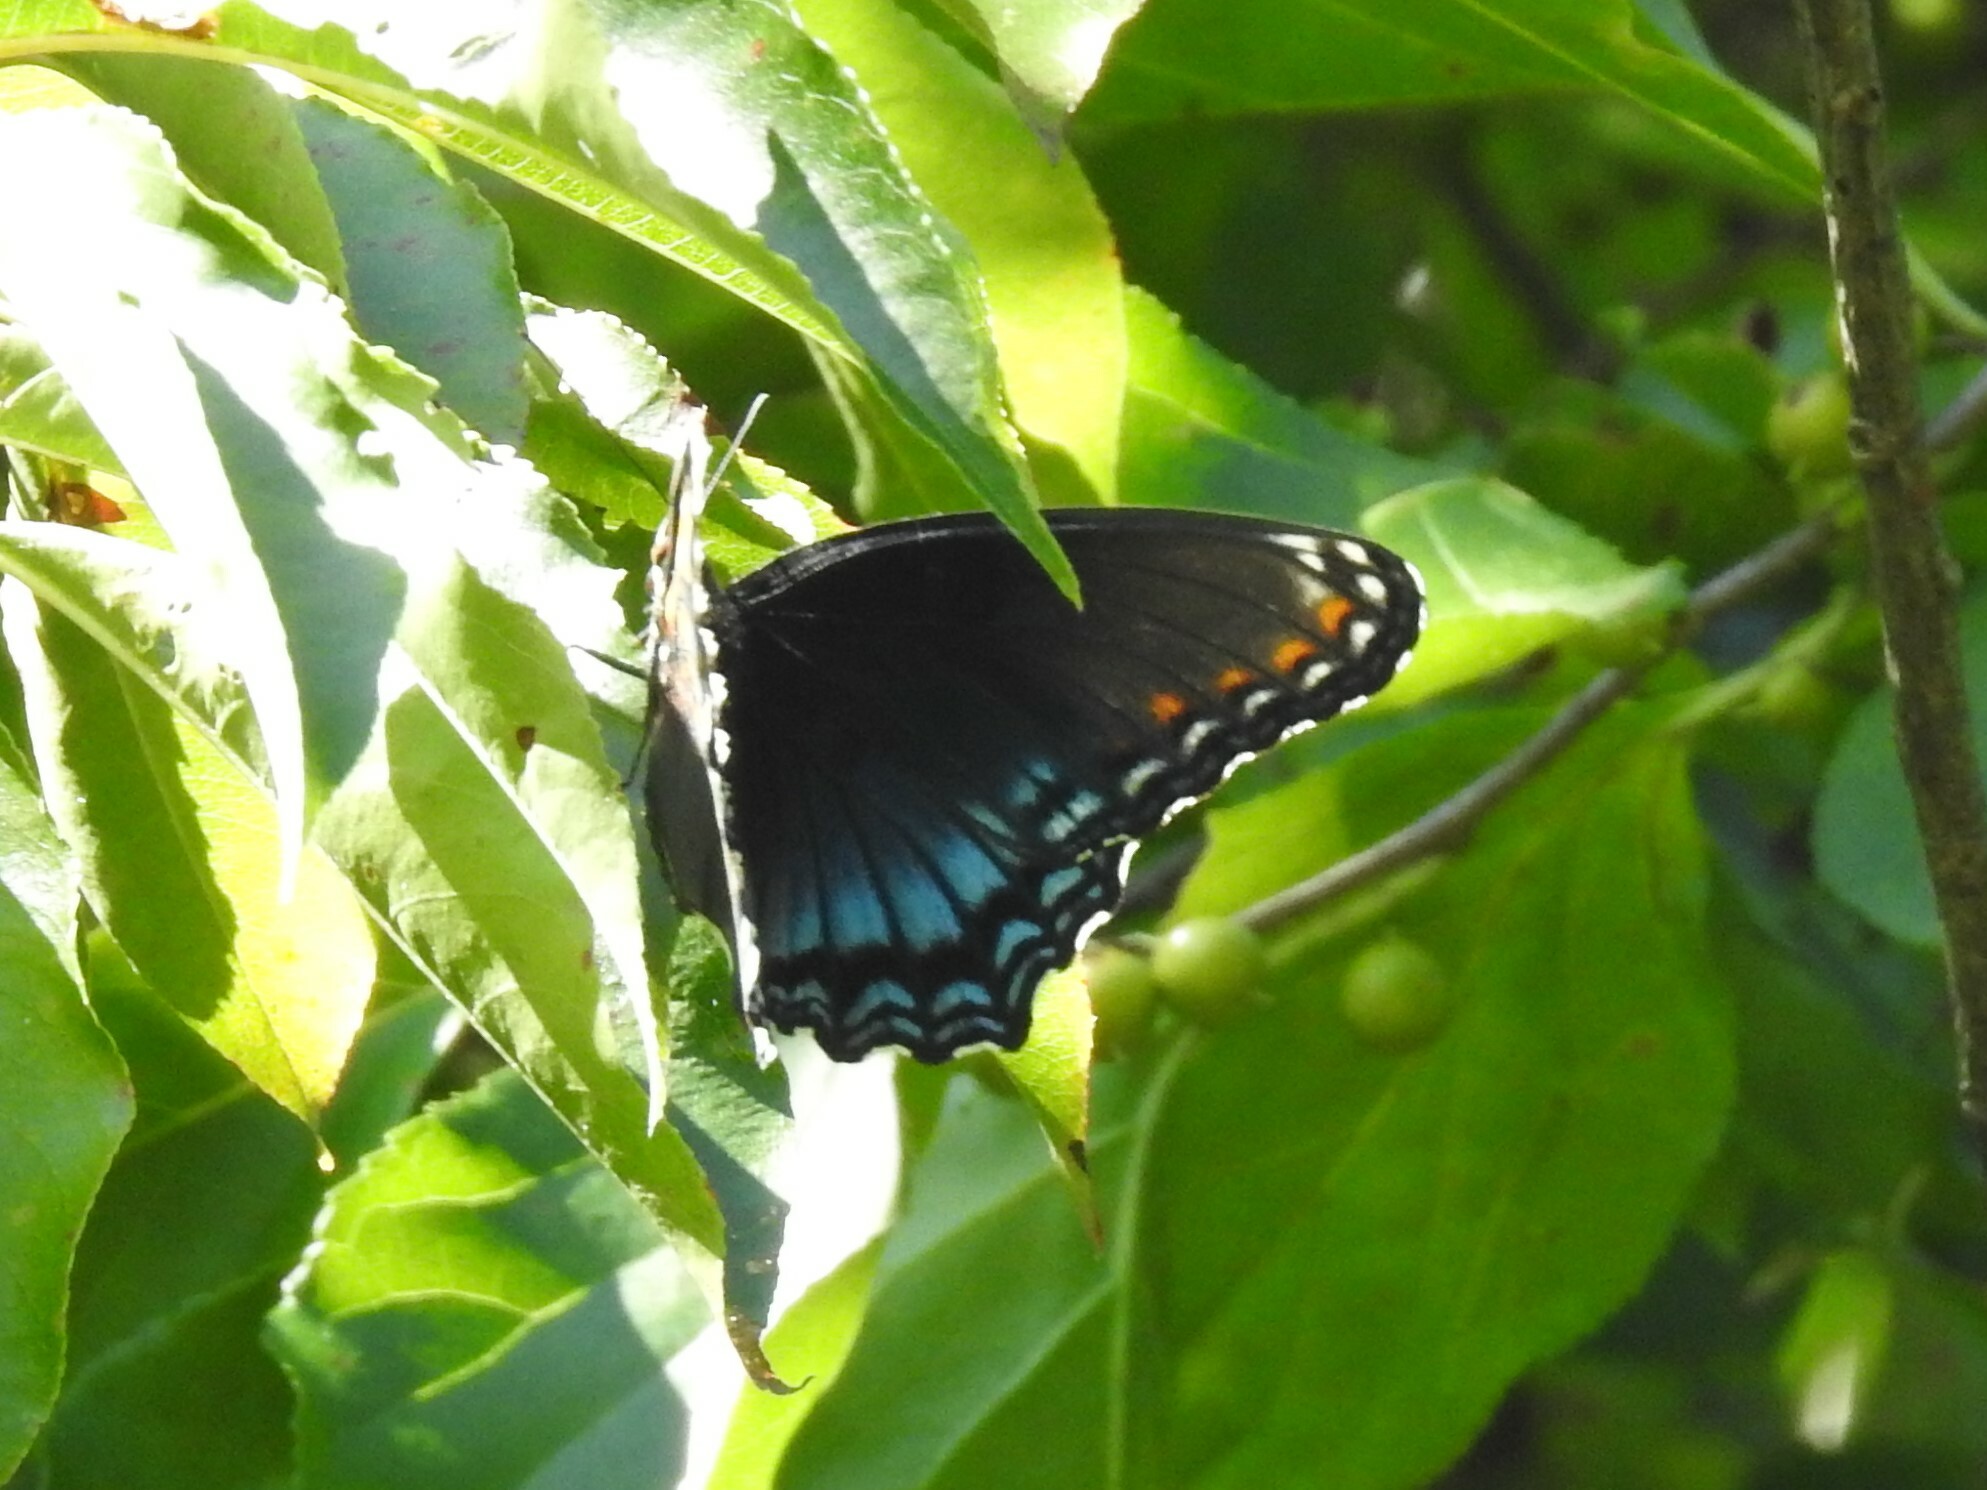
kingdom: Animalia
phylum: Arthropoda
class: Insecta
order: Lepidoptera
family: Nymphalidae
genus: Limenitis
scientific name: Limenitis arthemis
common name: Red-spotted admiral
